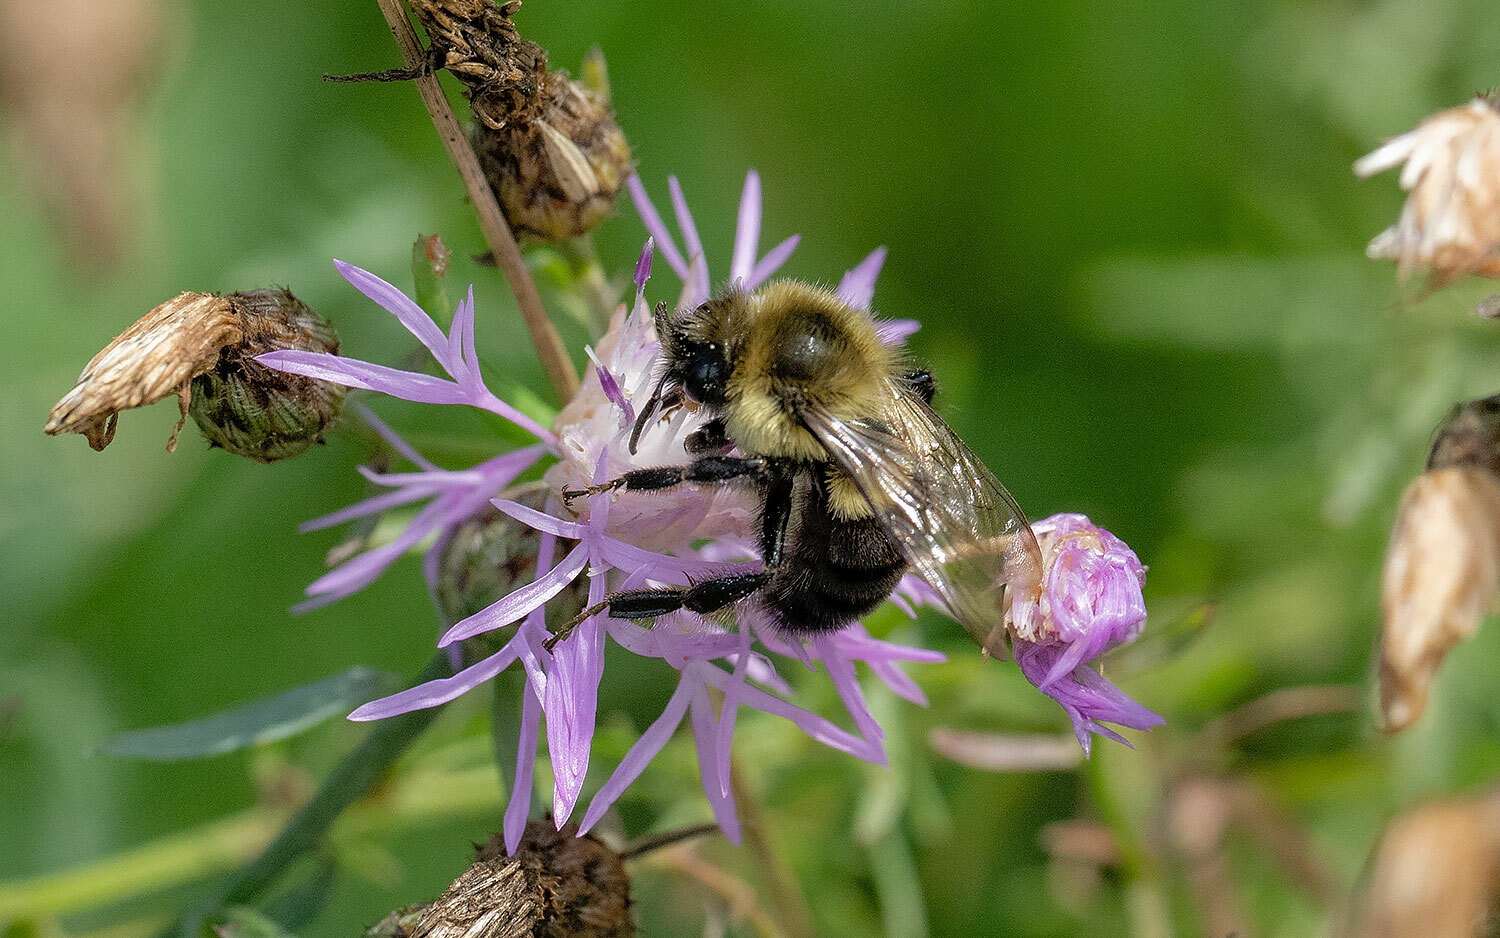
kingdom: Animalia
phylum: Arthropoda
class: Insecta
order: Hymenoptera
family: Apidae
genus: Bombus
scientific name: Bombus impatiens
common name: Common eastern bumble bee
